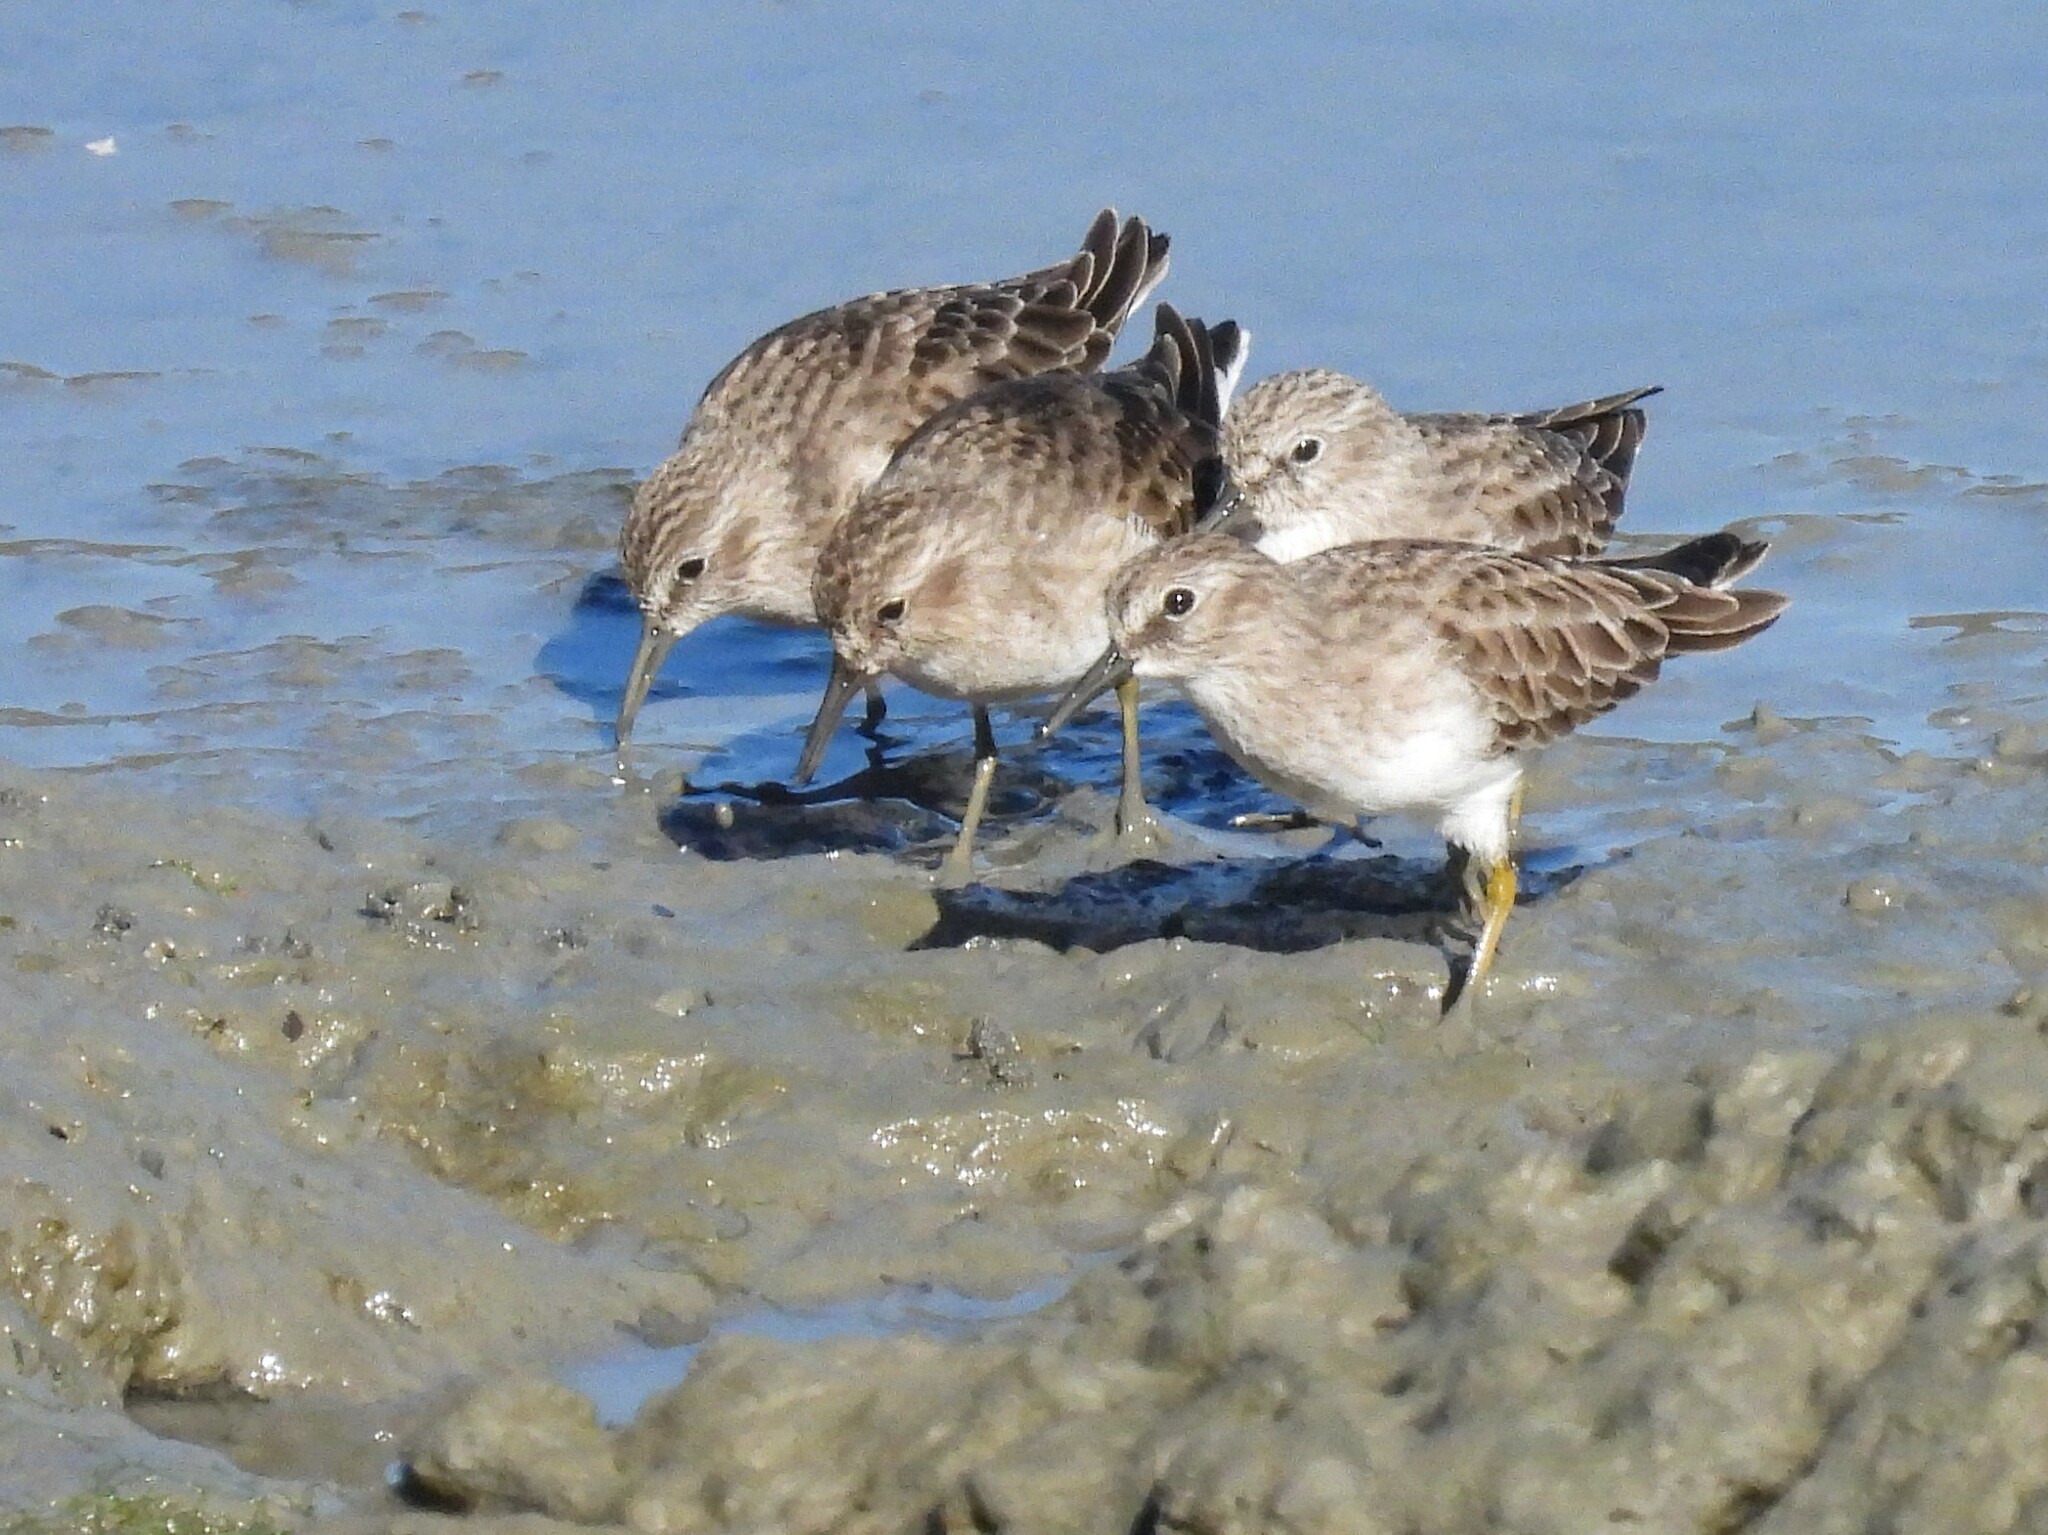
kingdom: Animalia
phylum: Chordata
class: Aves
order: Charadriiformes
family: Scolopacidae
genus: Calidris
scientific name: Calidris minutilla
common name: Least sandpiper
